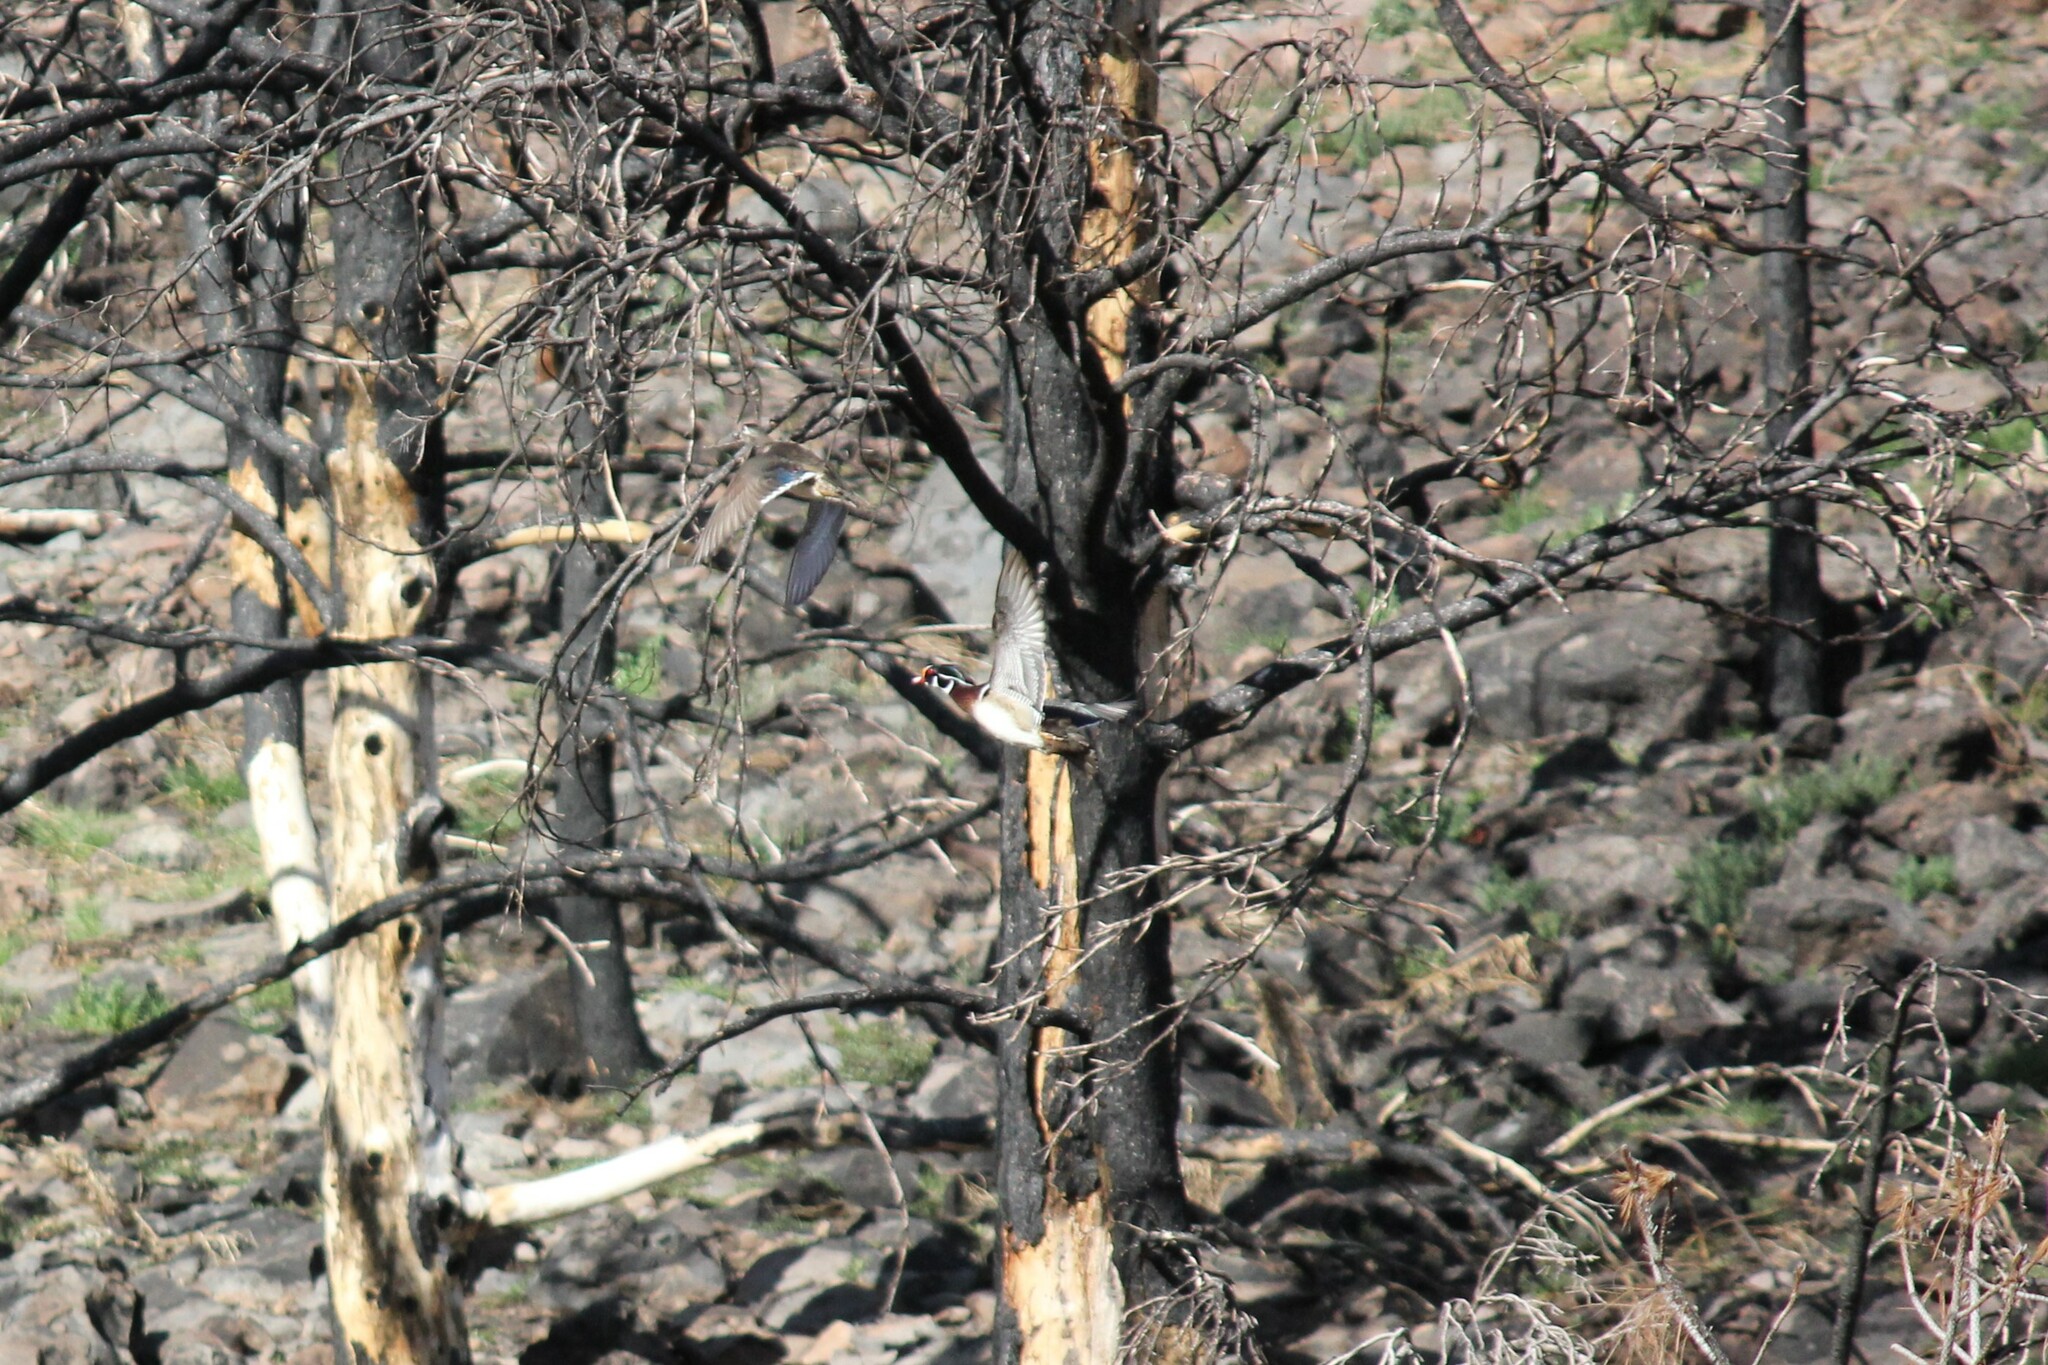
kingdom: Animalia
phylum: Chordata
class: Aves
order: Anseriformes
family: Anatidae
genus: Aix
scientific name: Aix sponsa
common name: Wood duck
